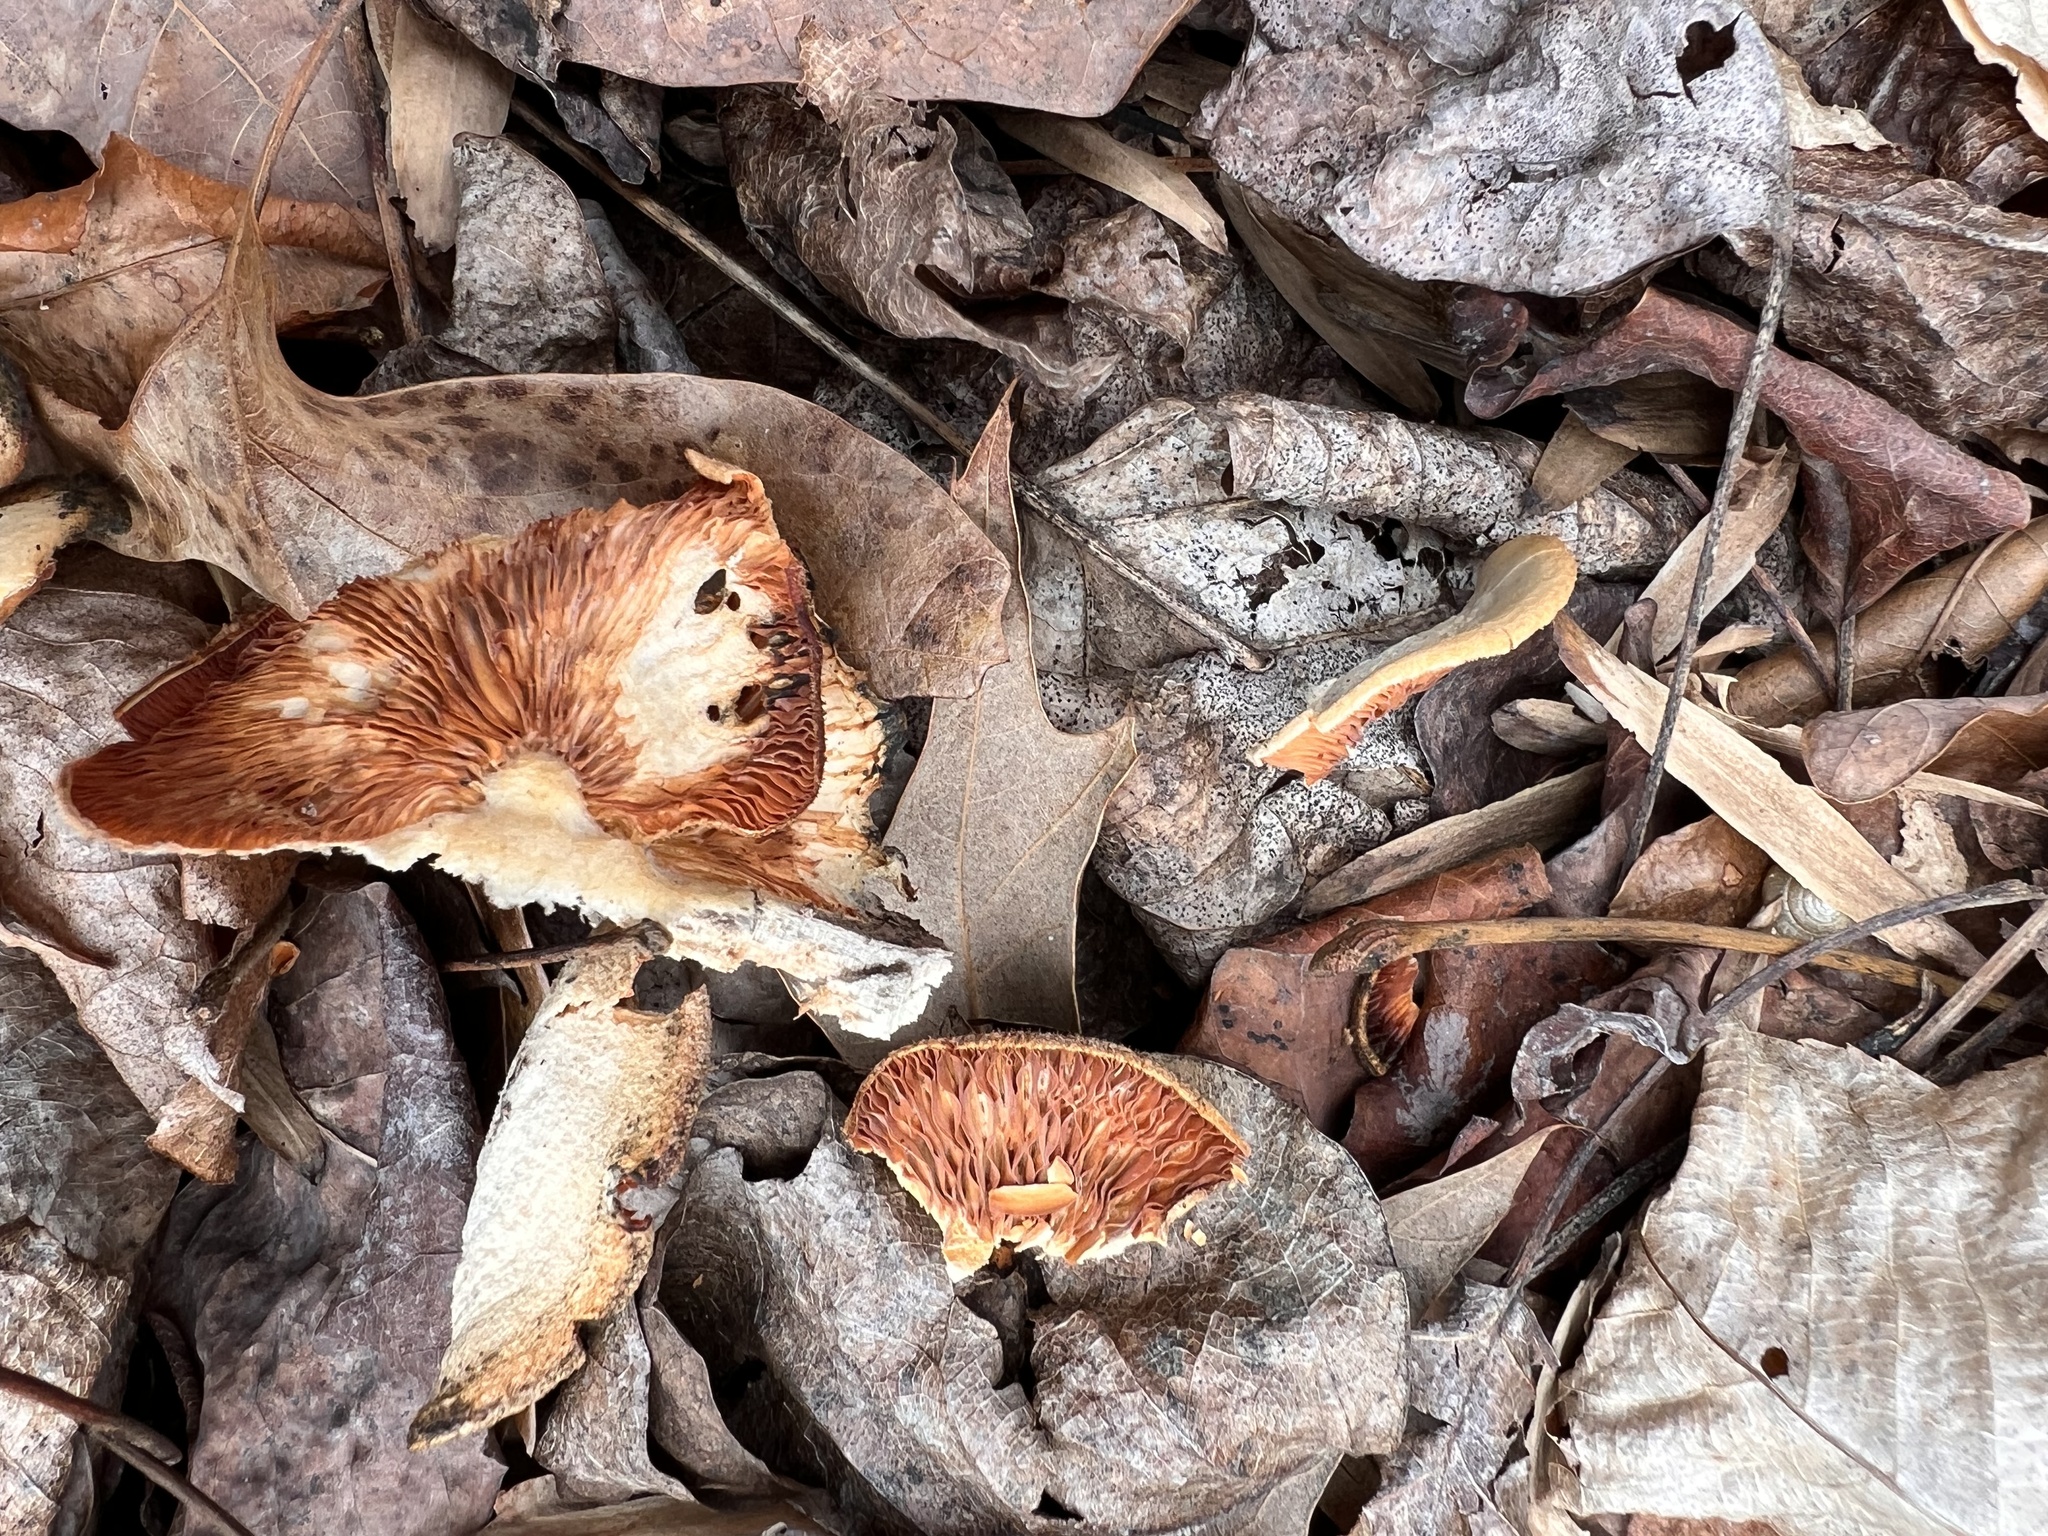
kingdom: Fungi
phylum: Basidiomycota
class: Agaricomycetes
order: Agaricales
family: Phyllotopsidaceae
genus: Phyllotopsis
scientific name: Phyllotopsis nidulans
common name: Orange mock oyster
